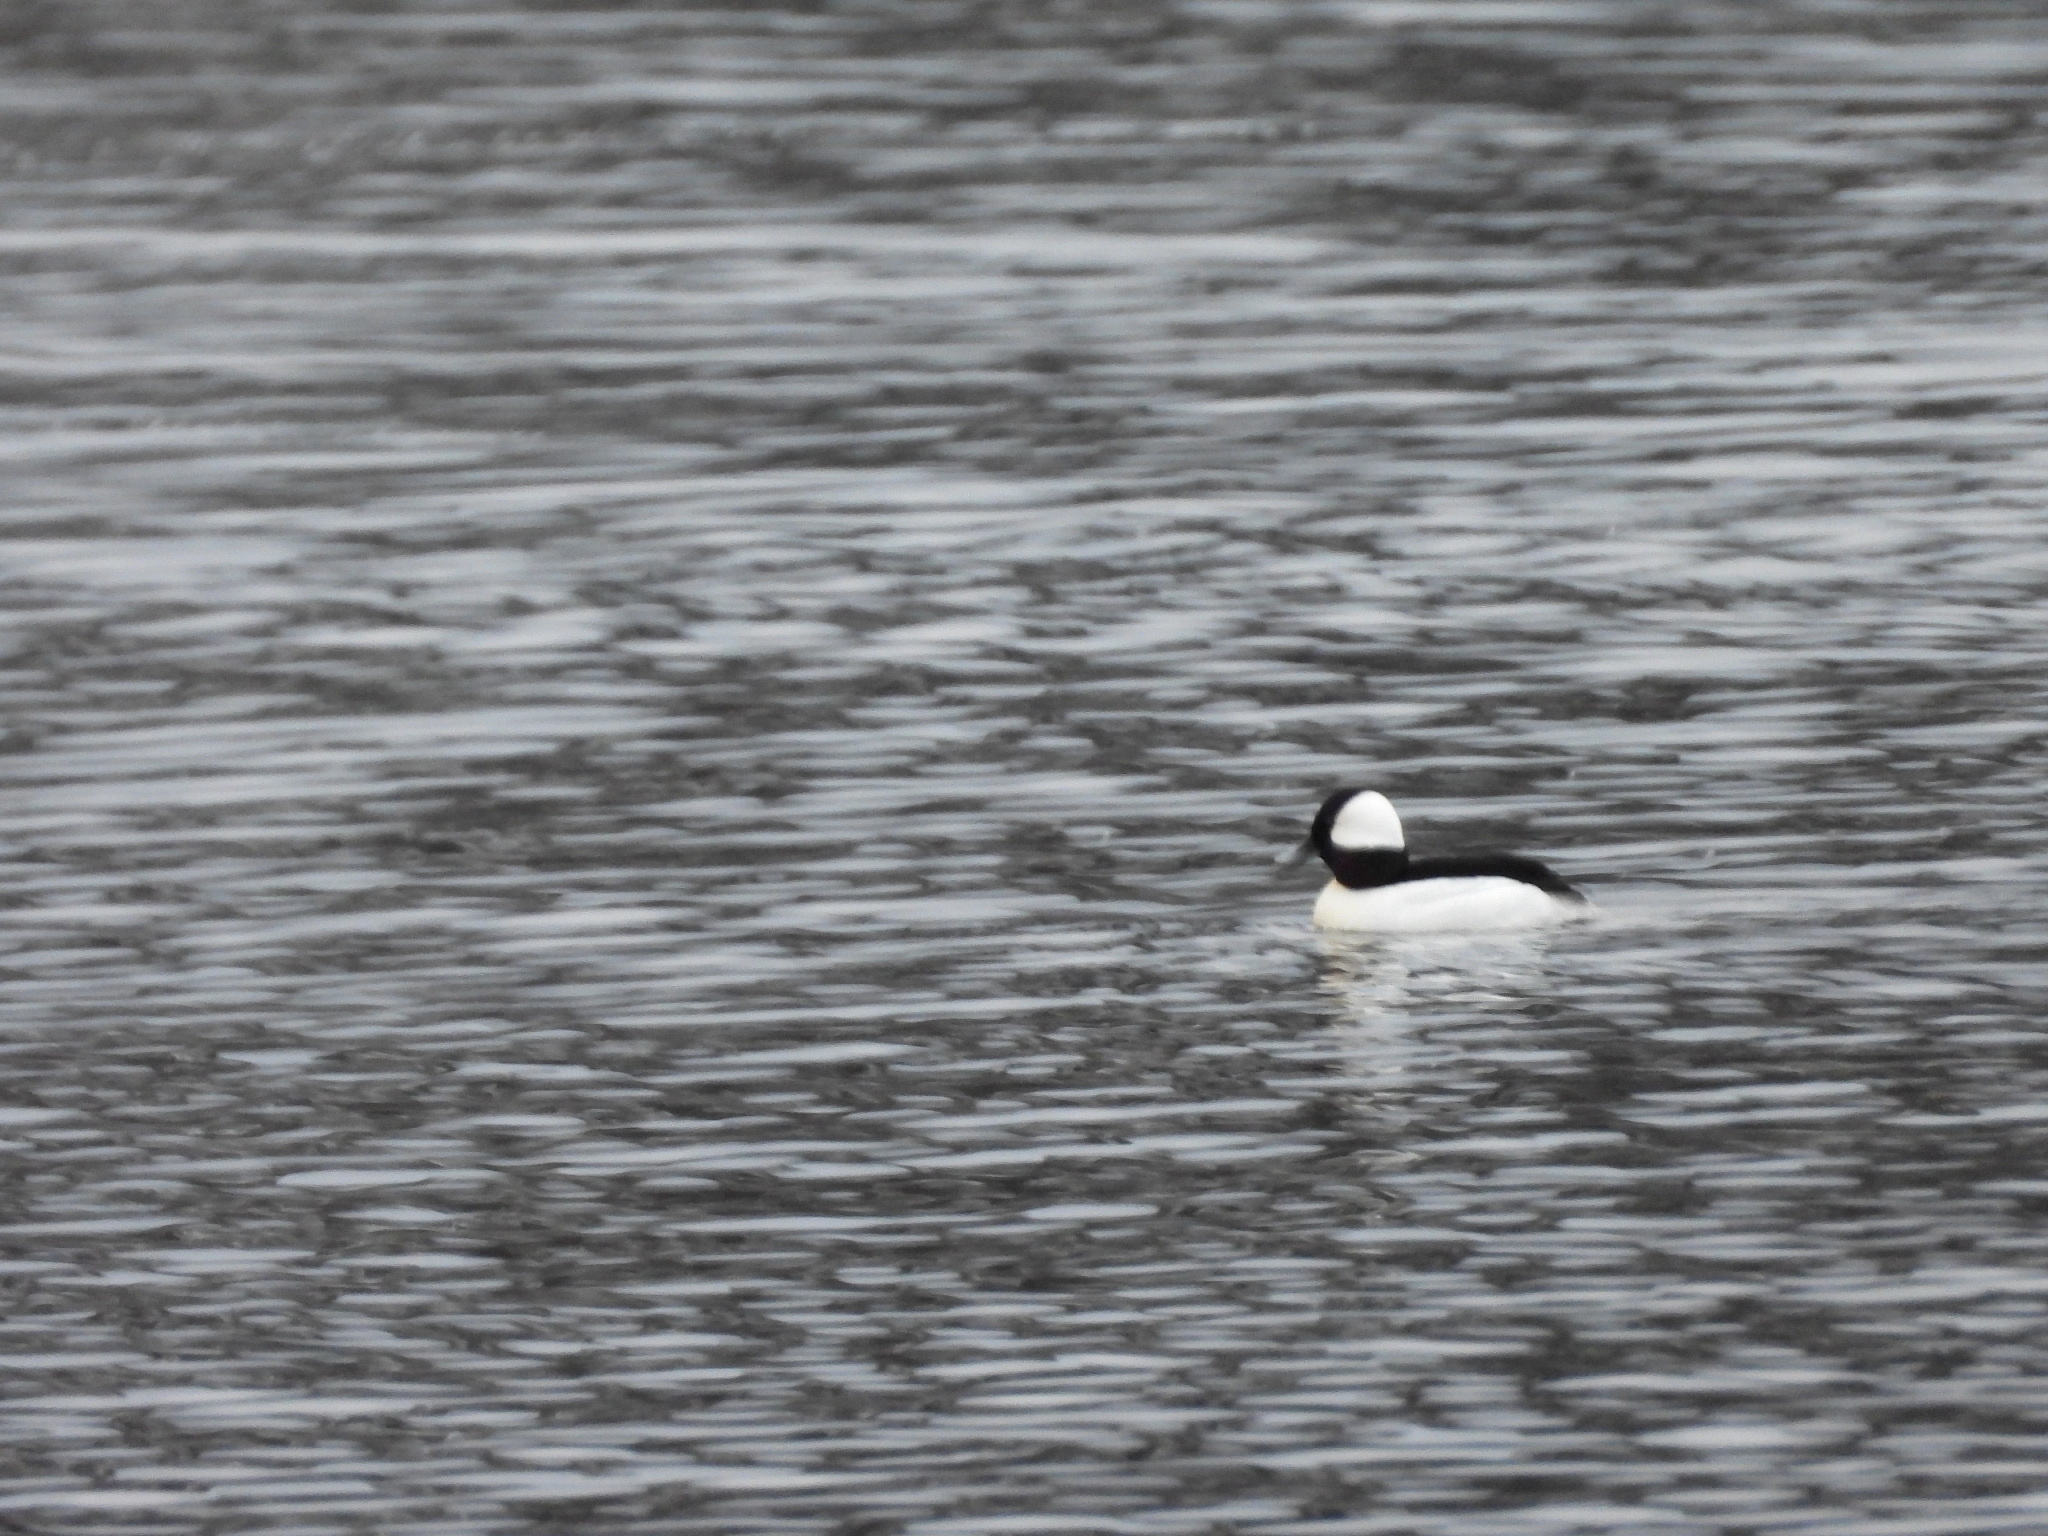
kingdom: Animalia
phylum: Chordata
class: Aves
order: Anseriformes
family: Anatidae
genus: Bucephala
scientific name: Bucephala albeola
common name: Bufflehead
